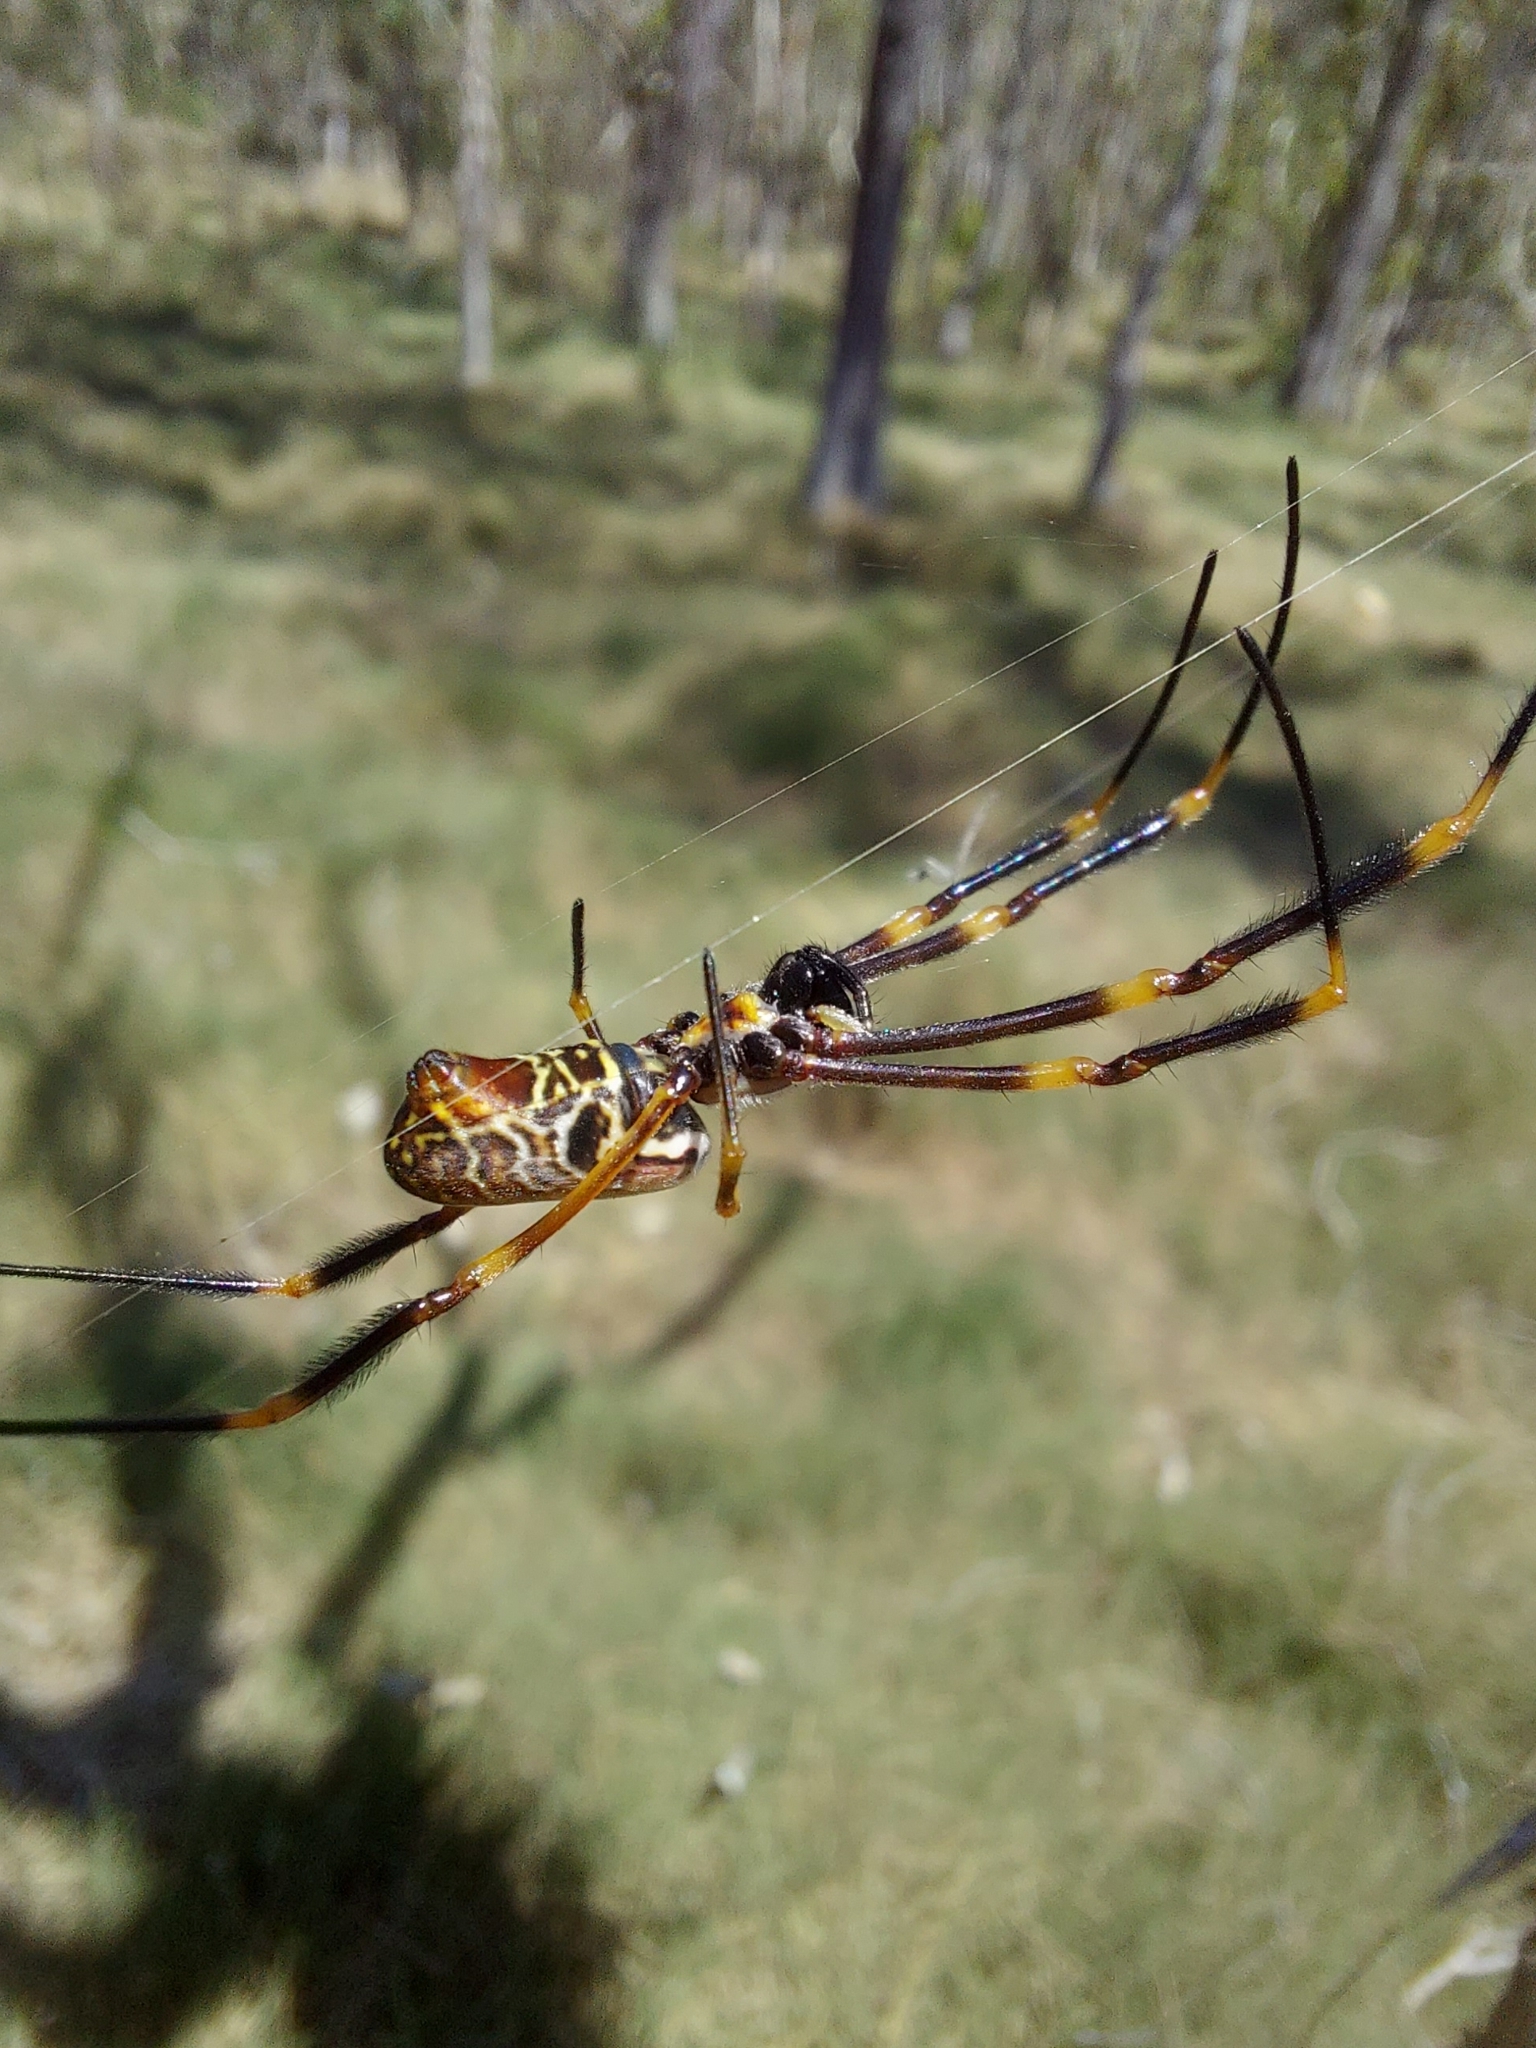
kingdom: Animalia
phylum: Arthropoda
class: Arachnida
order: Araneae
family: Araneidae
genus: Trichonephila
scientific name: Trichonephila plumipes
